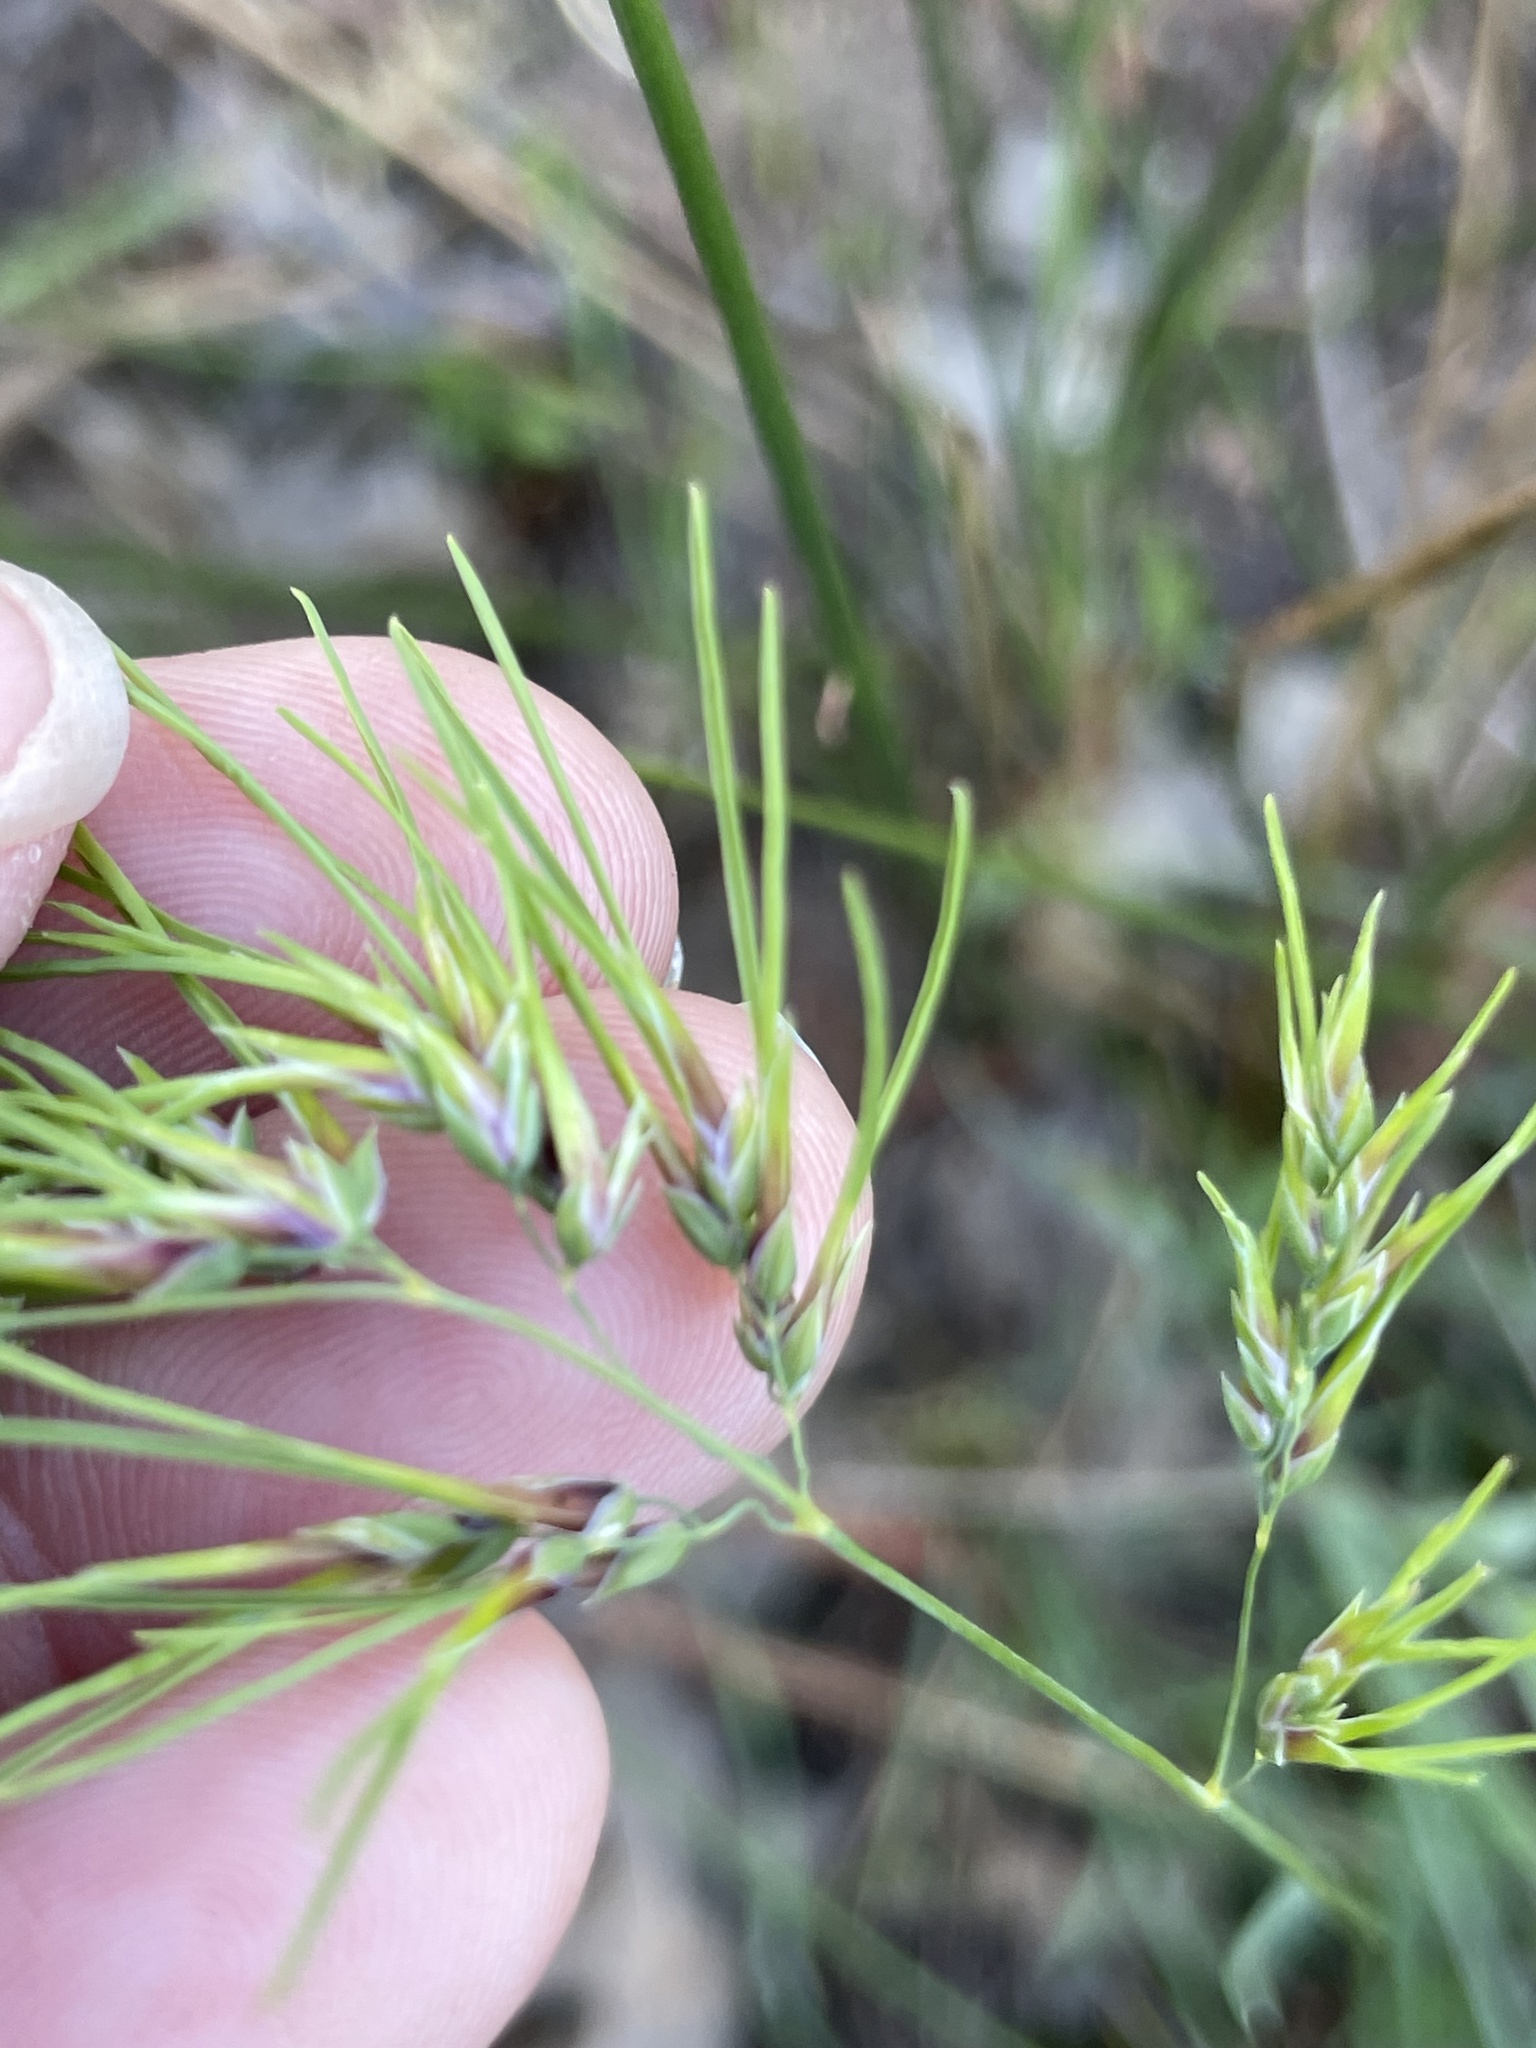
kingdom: Plantae
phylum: Tracheophyta
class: Liliopsida
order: Poales
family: Poaceae
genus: Poa
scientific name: Poa bulbosa
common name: Bulbous bluegrass
